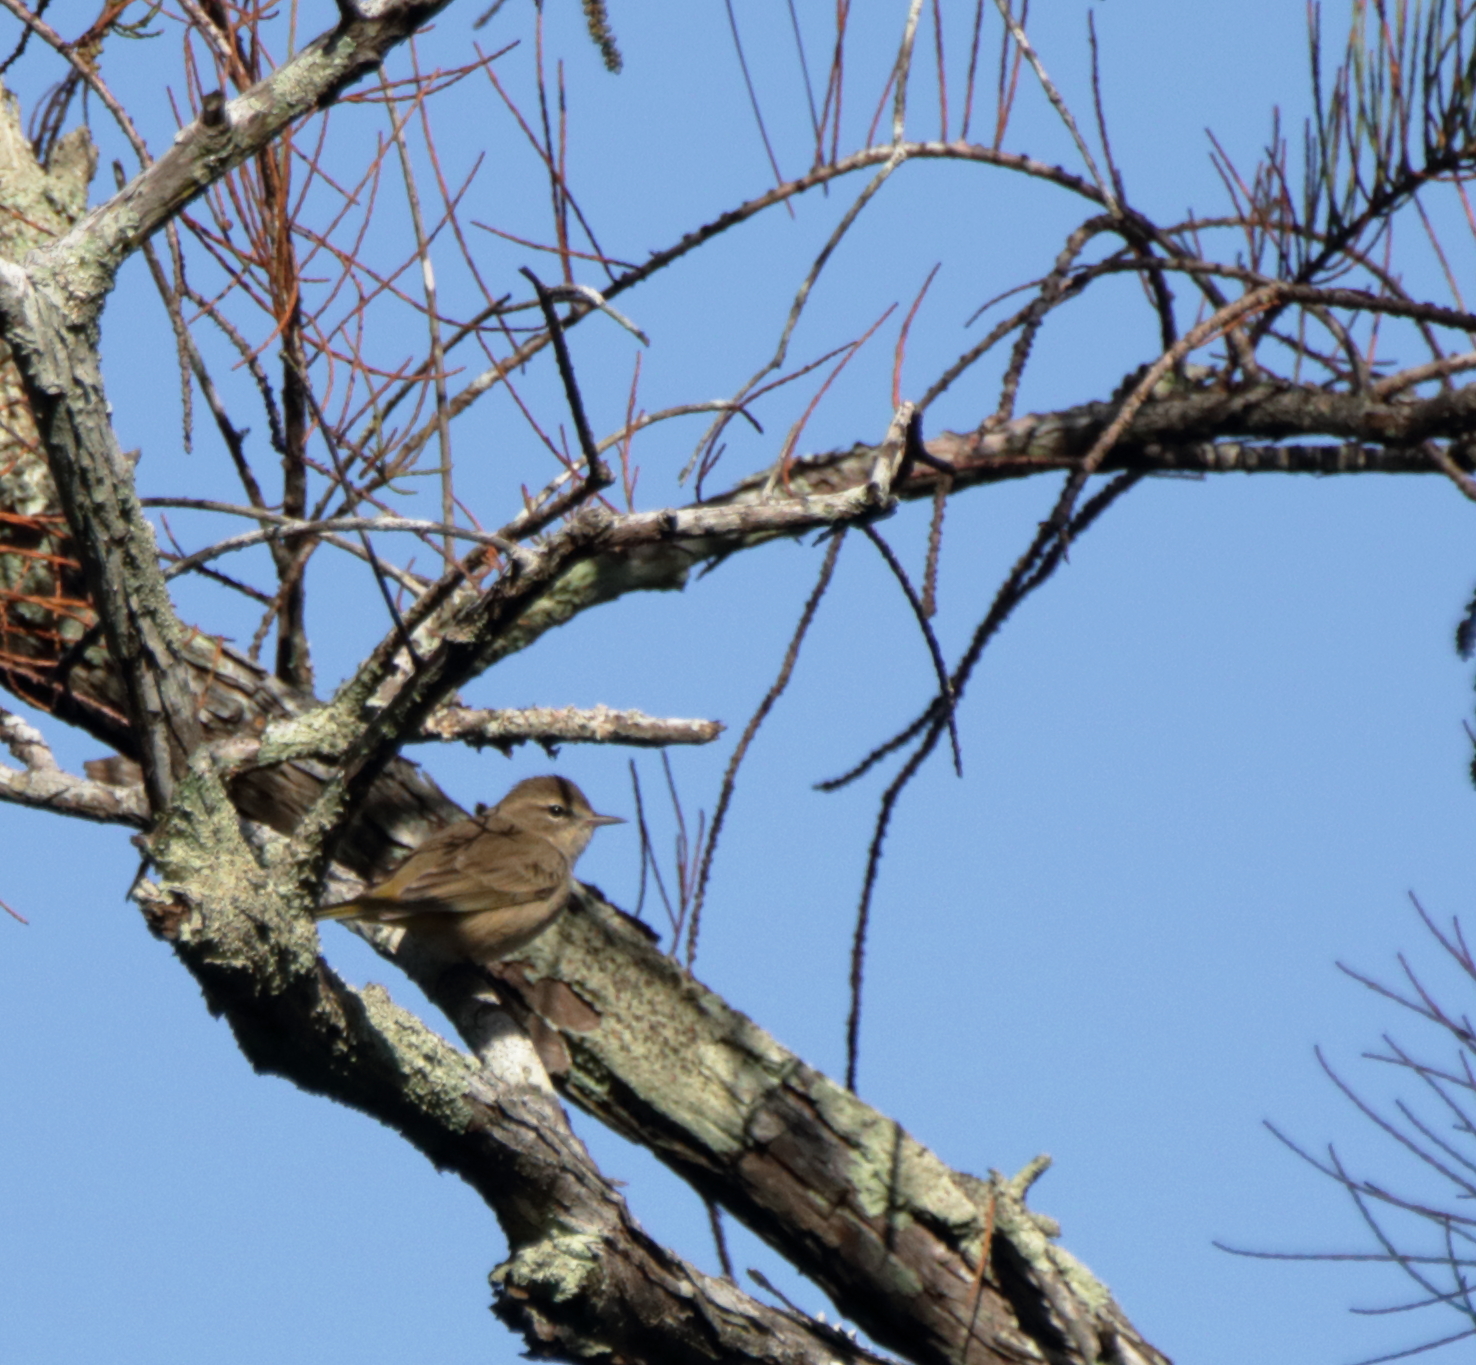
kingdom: Animalia
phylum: Chordata
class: Aves
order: Passeriformes
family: Parulidae
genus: Setophaga
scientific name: Setophaga palmarum
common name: Palm warbler
